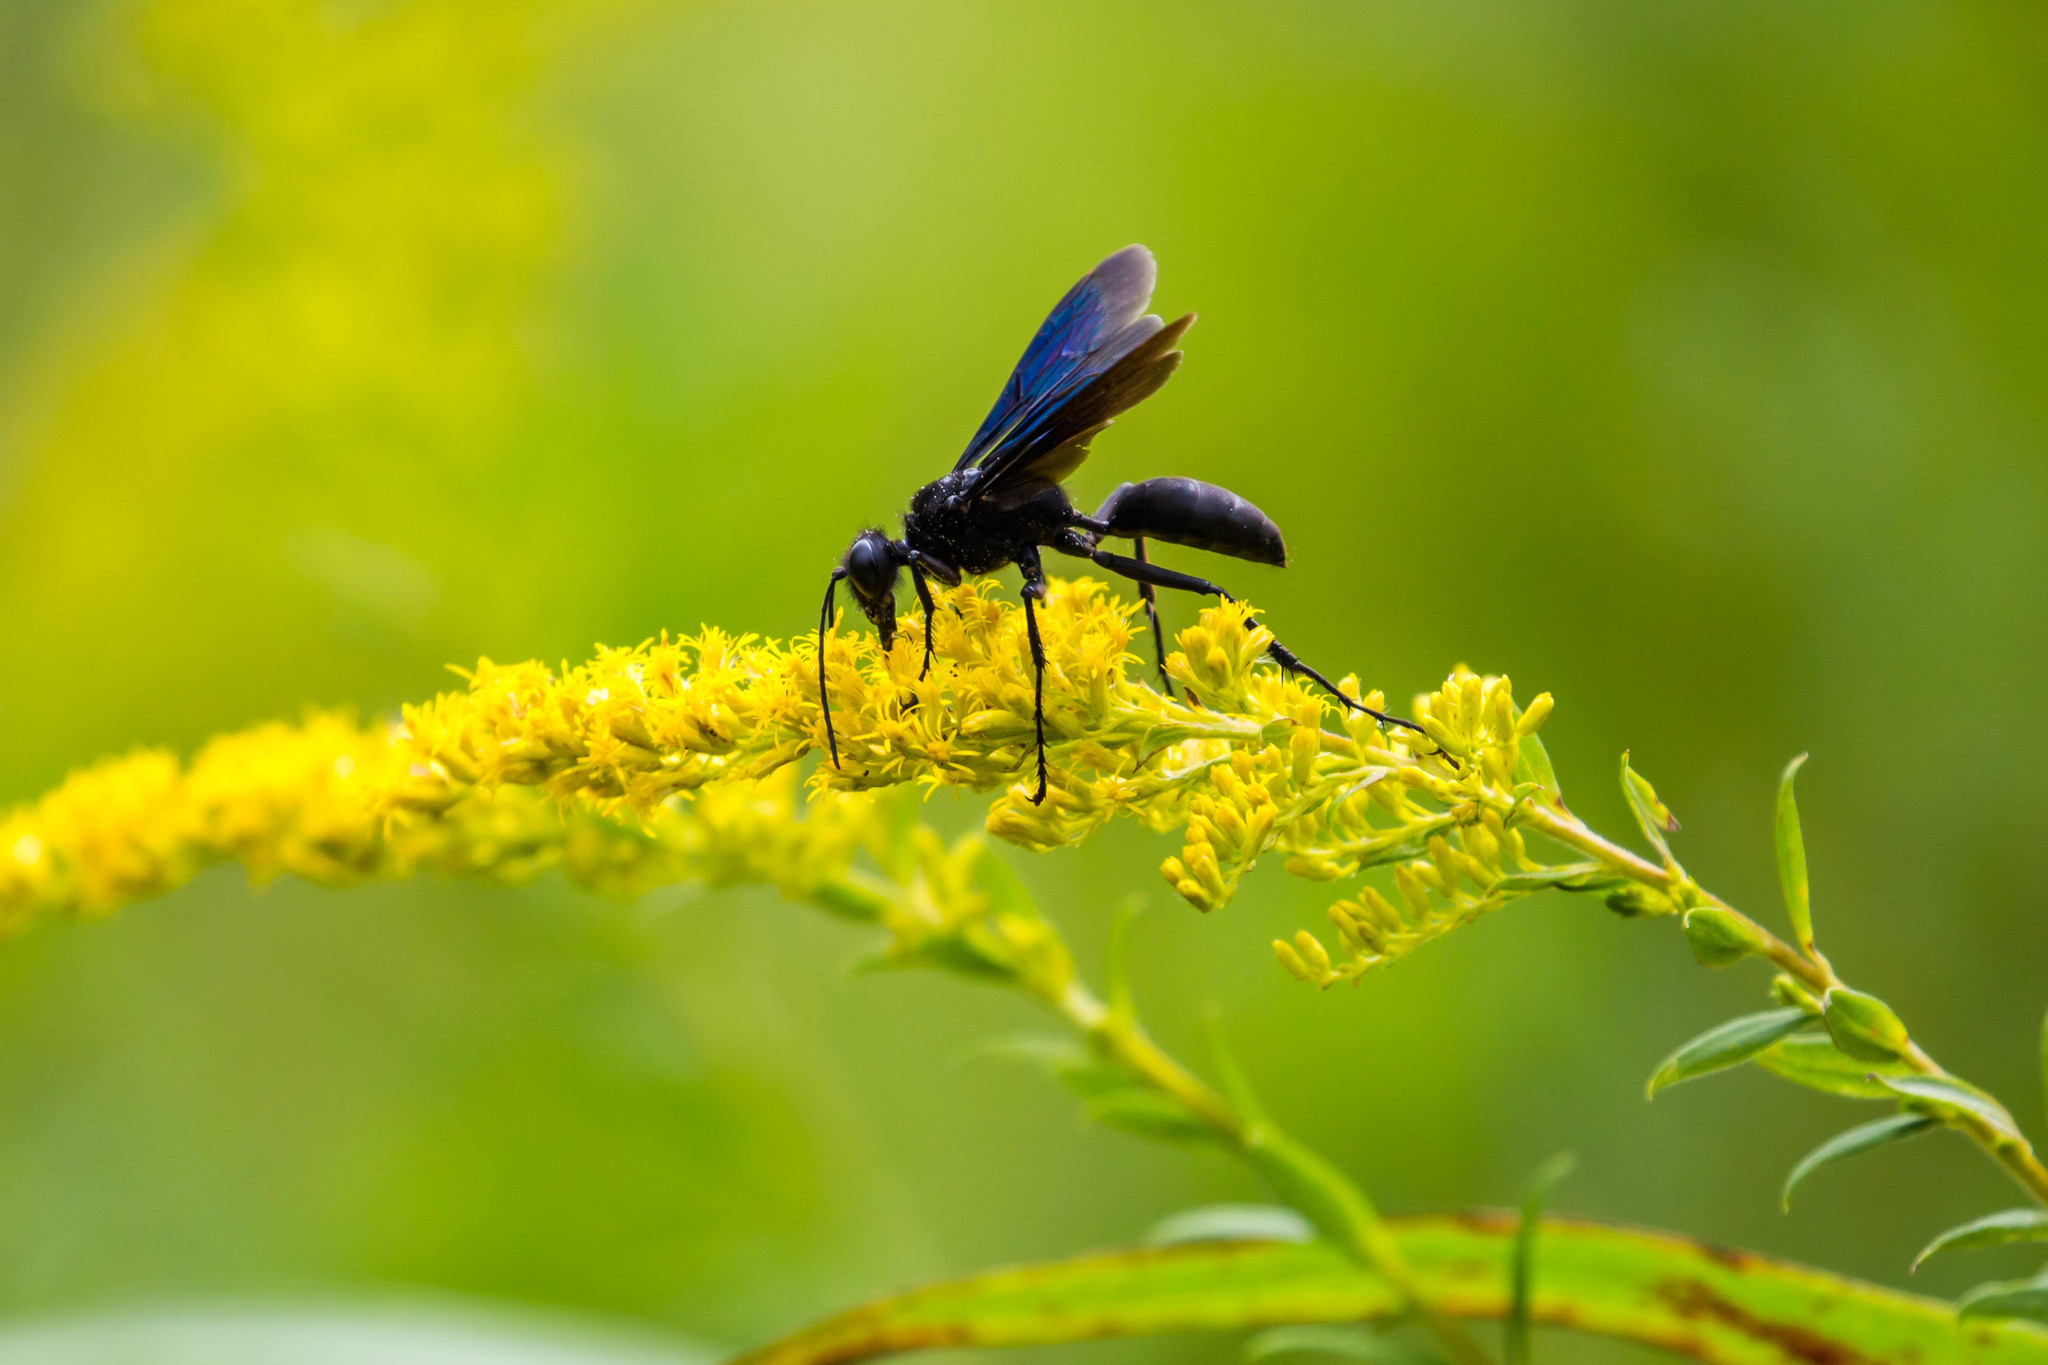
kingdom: Animalia
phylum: Arthropoda
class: Insecta
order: Hymenoptera
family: Sphecidae
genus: Sphex
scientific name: Sphex pensylvanicus
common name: Great black digger wasp
